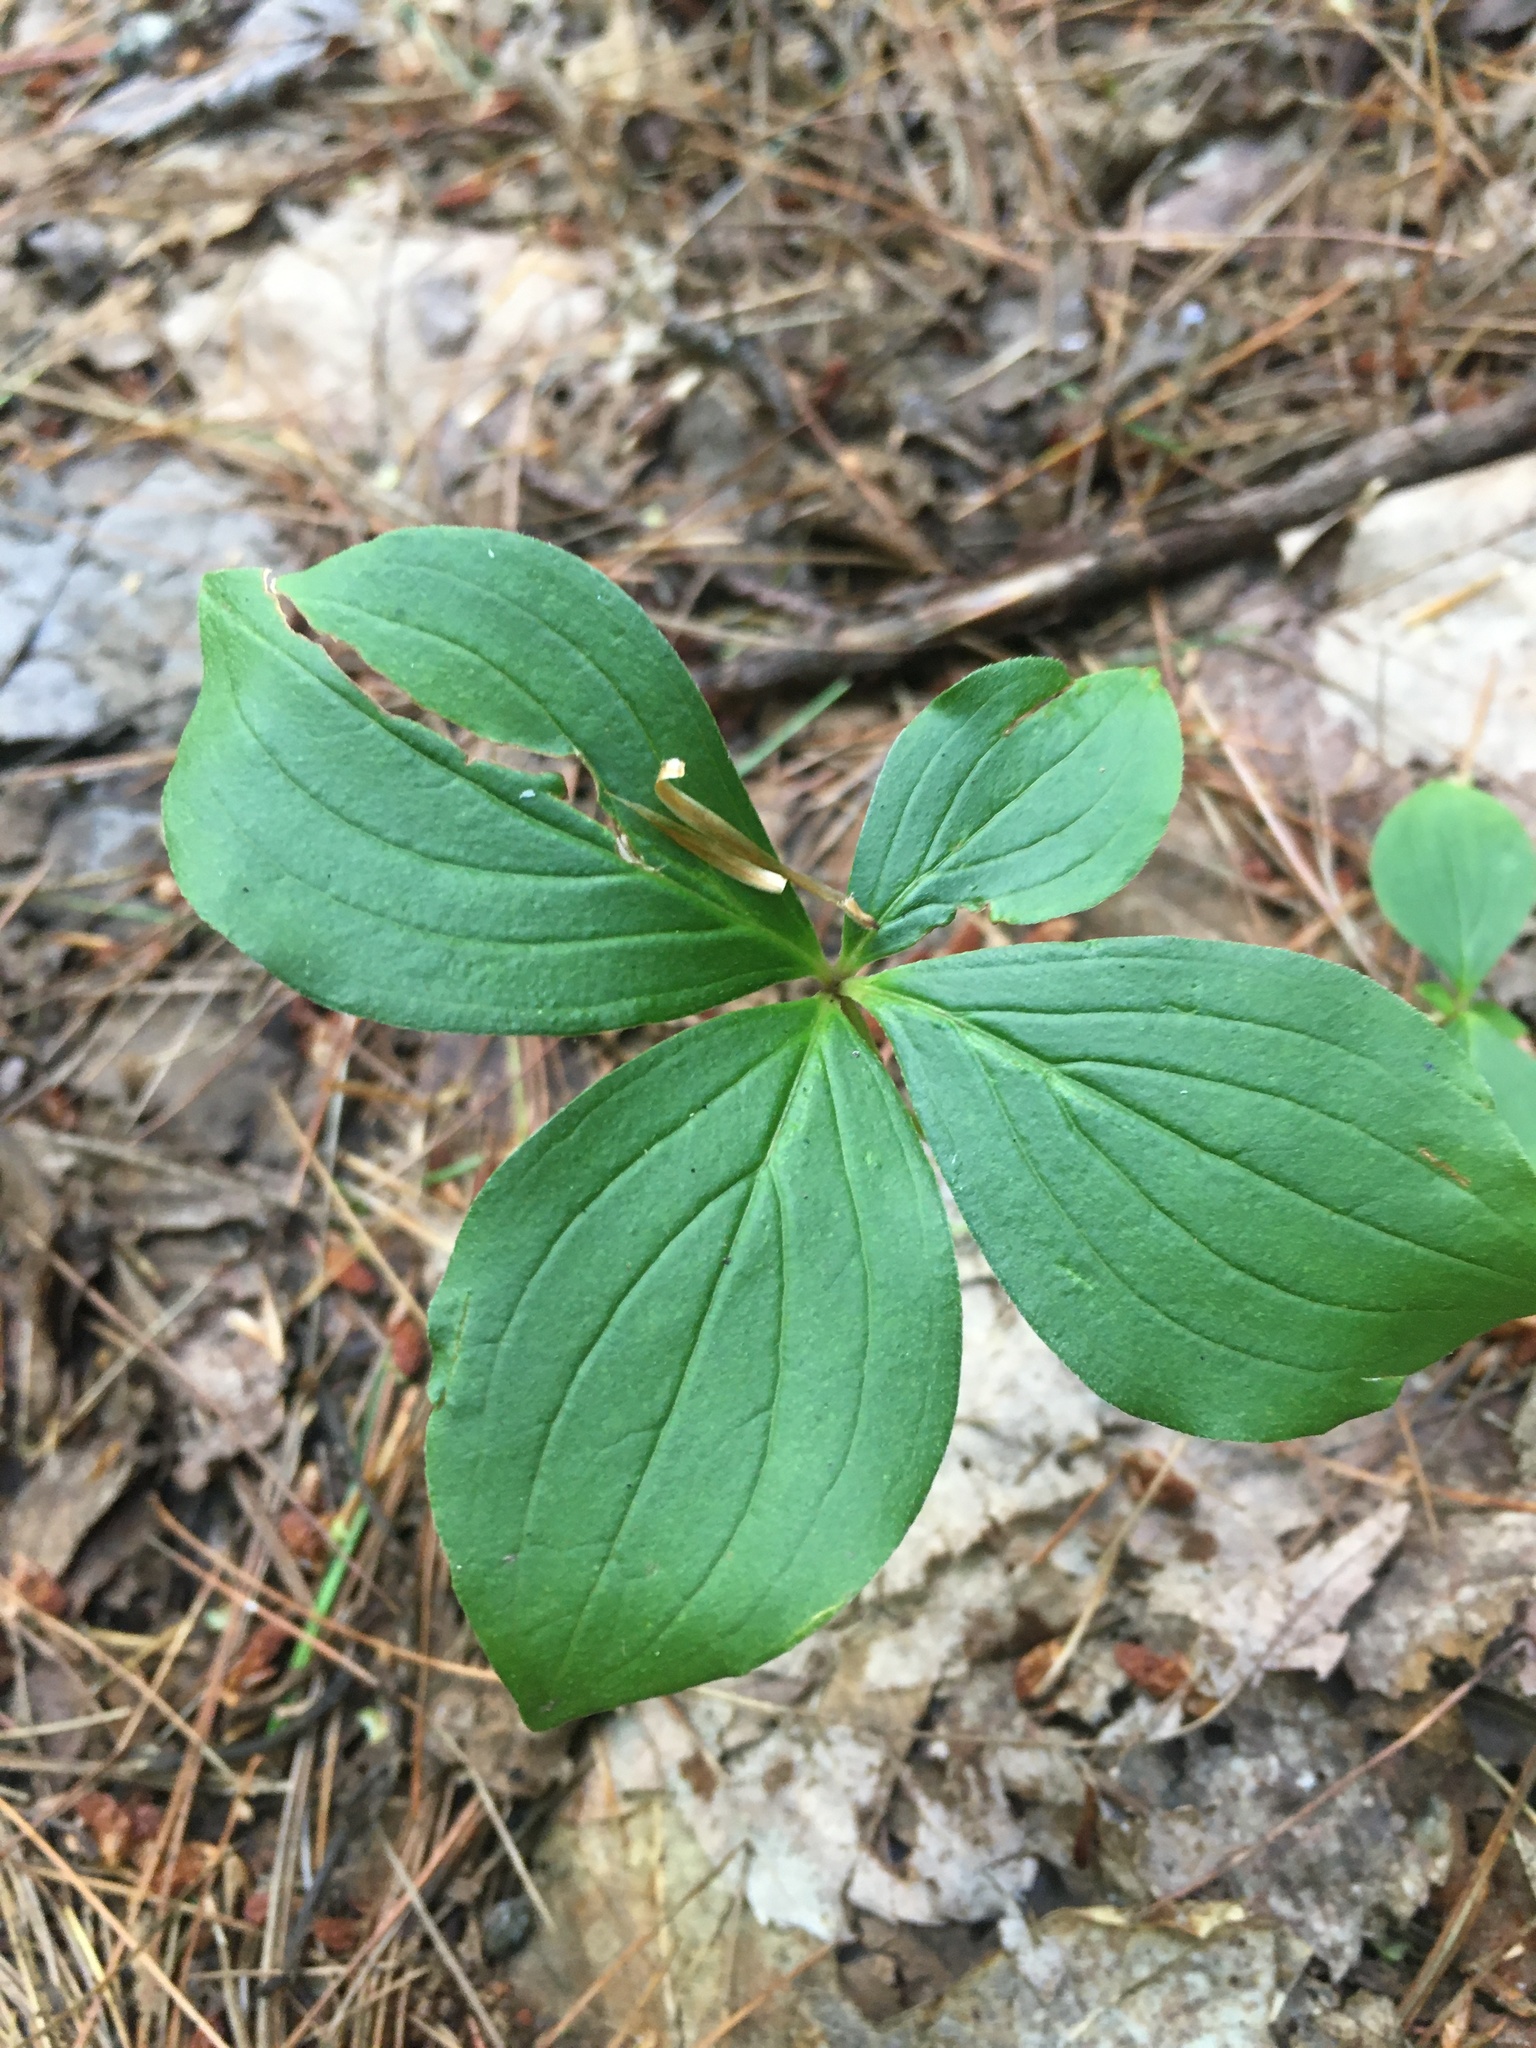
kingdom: Plantae
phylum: Tracheophyta
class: Magnoliopsida
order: Cornales
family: Cornaceae
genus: Cornus
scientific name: Cornus canadensis
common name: Creeping dogwood
